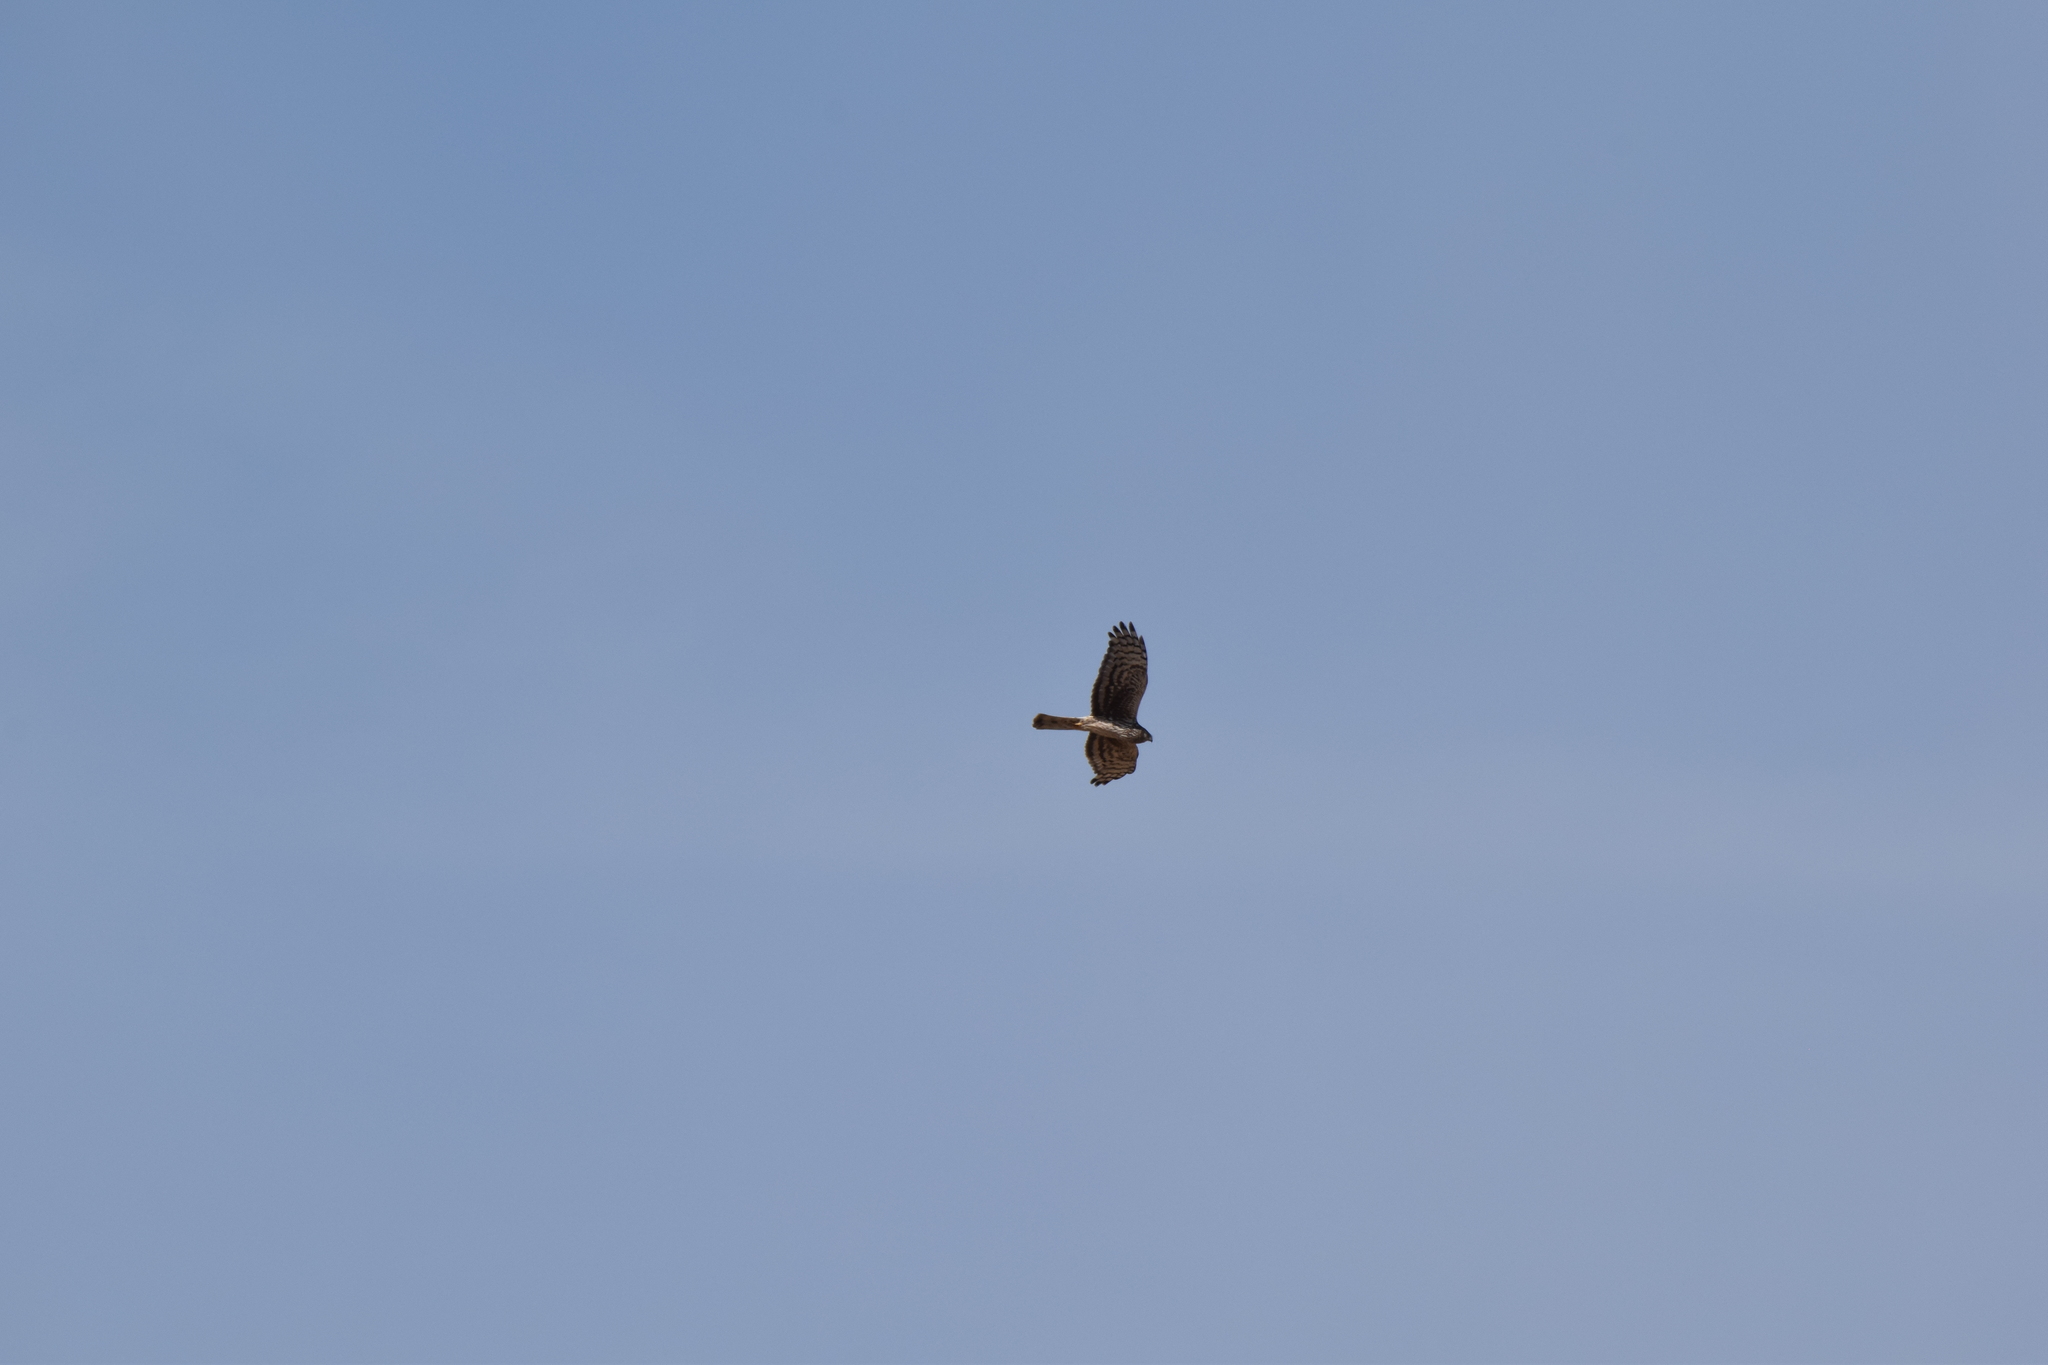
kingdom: Animalia
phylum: Chordata
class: Aves
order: Accipitriformes
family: Accipitridae
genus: Circus
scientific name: Circus cyaneus
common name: Hen harrier
